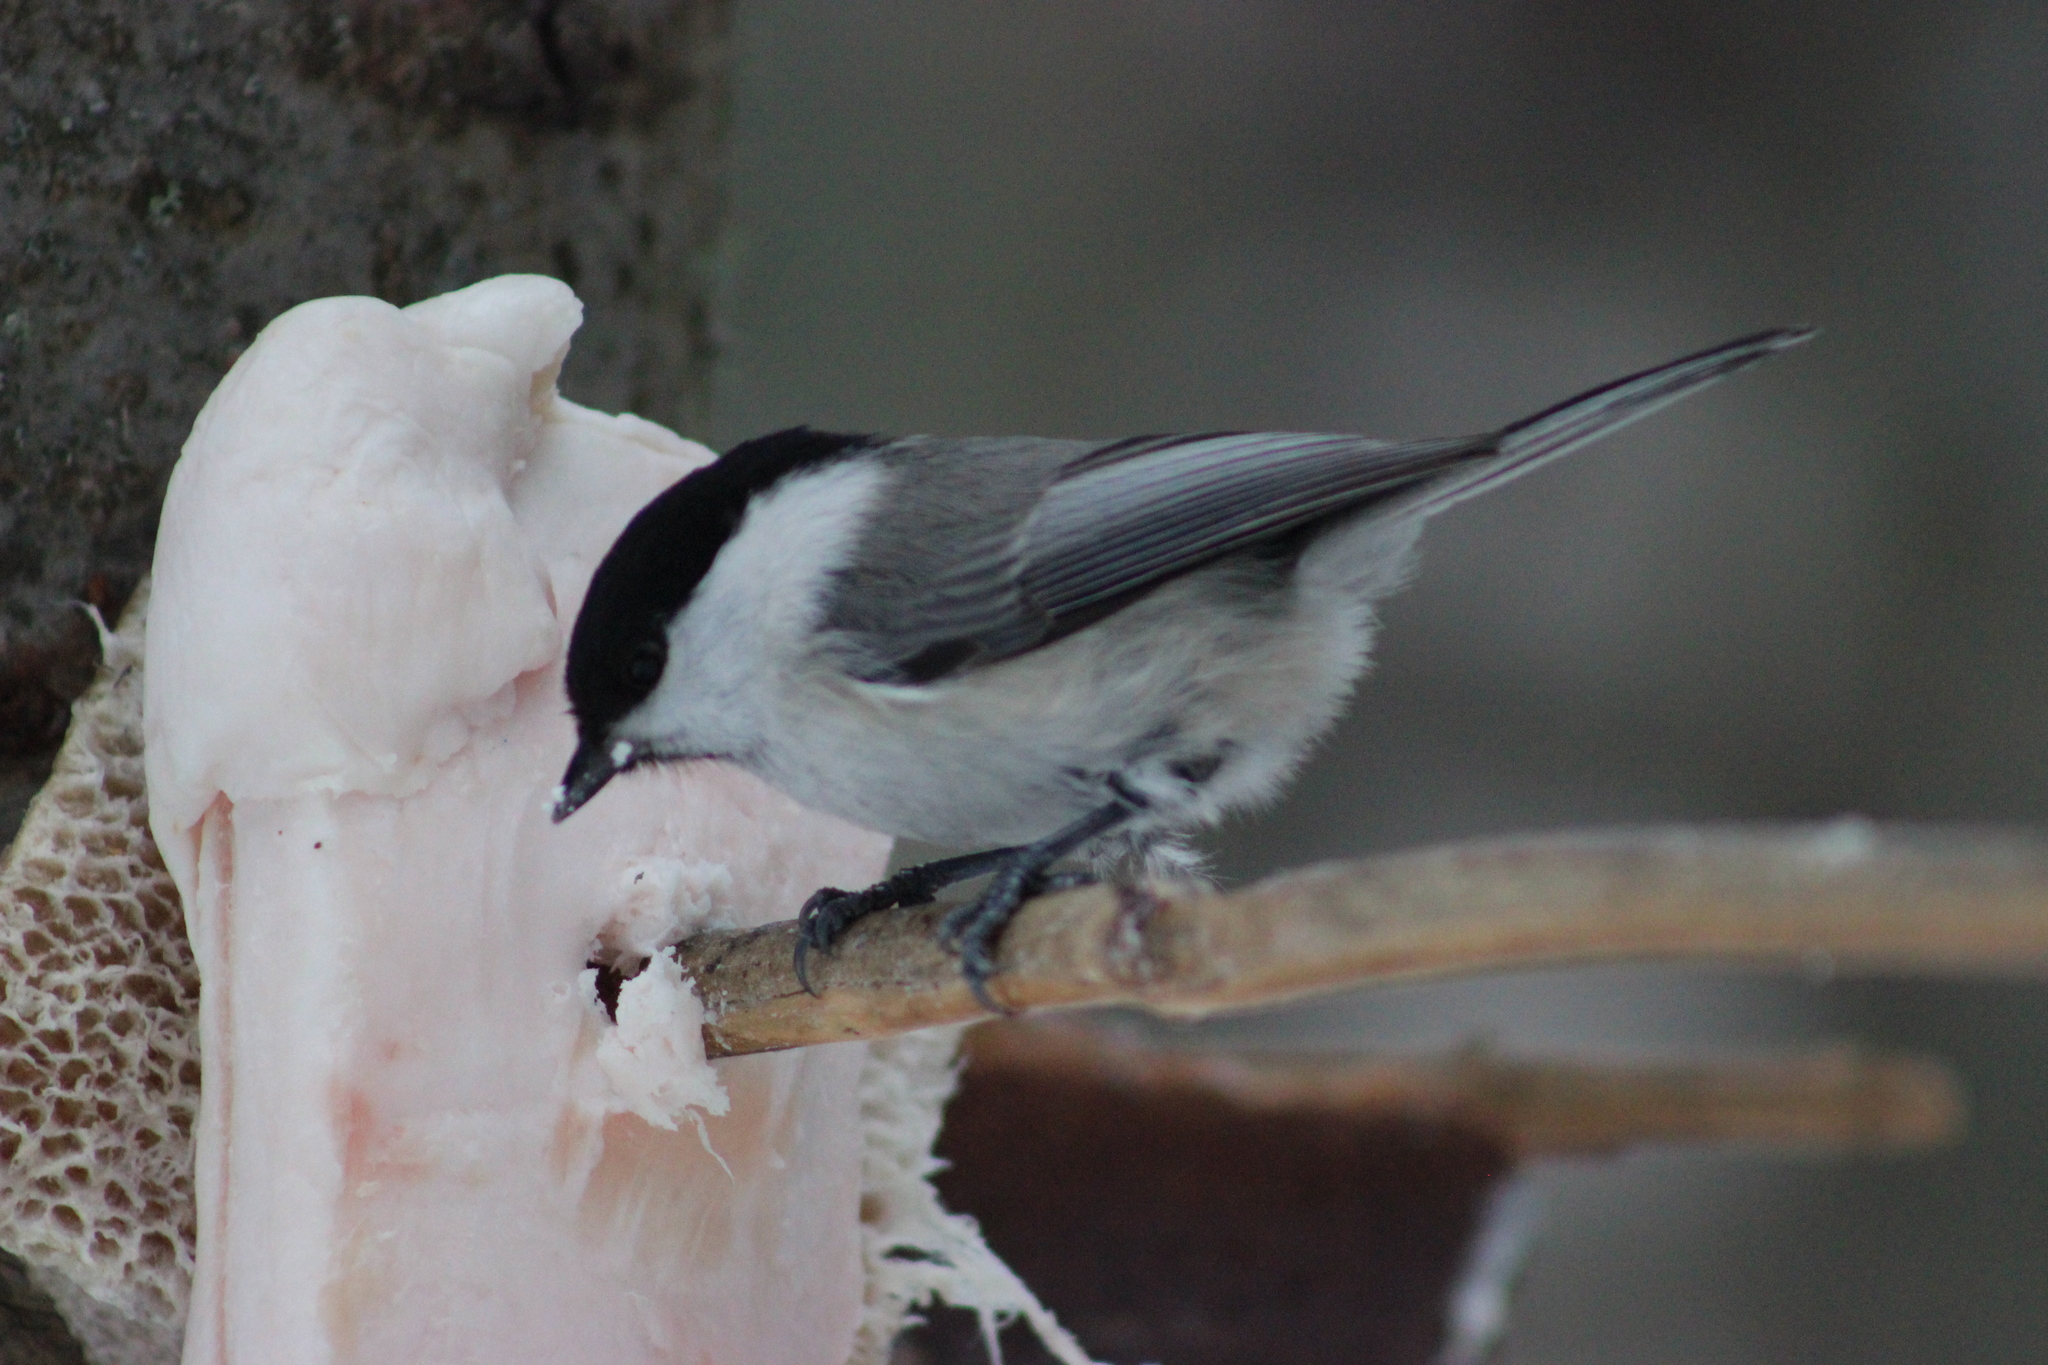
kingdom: Animalia
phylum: Chordata
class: Aves
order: Passeriformes
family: Paridae
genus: Poecile
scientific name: Poecile montanus
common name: Willow tit
